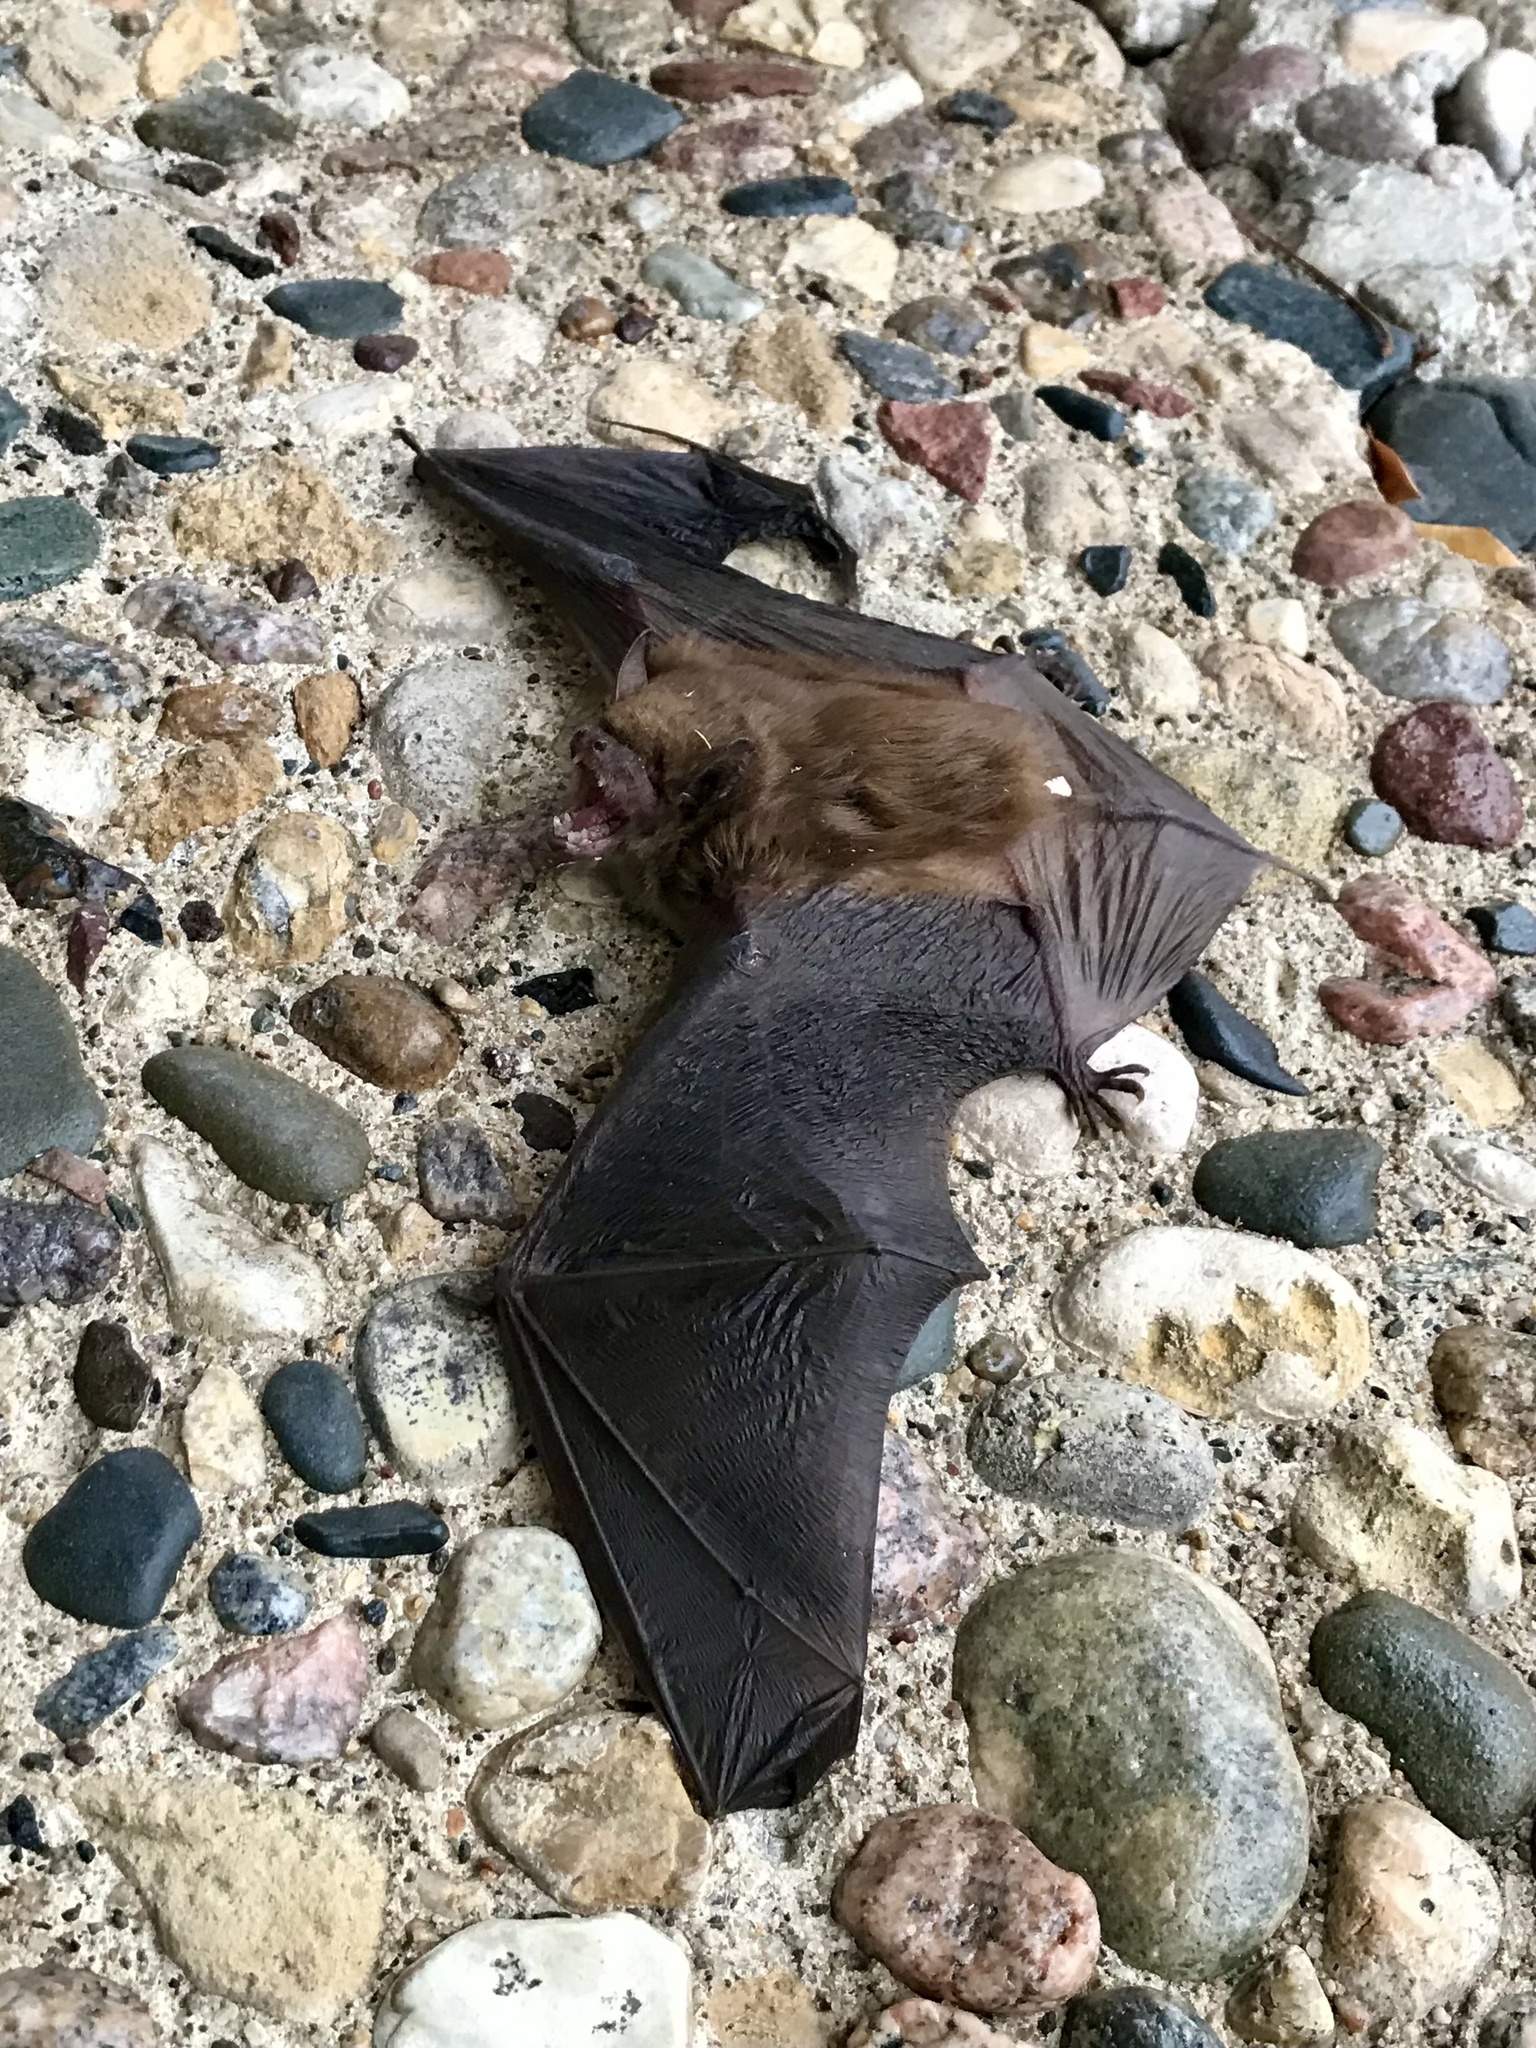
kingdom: Animalia
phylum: Chordata
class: Mammalia
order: Chiroptera
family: Vespertilionidae
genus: Eptesicus
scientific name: Eptesicus fuscus
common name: Big brown bat
